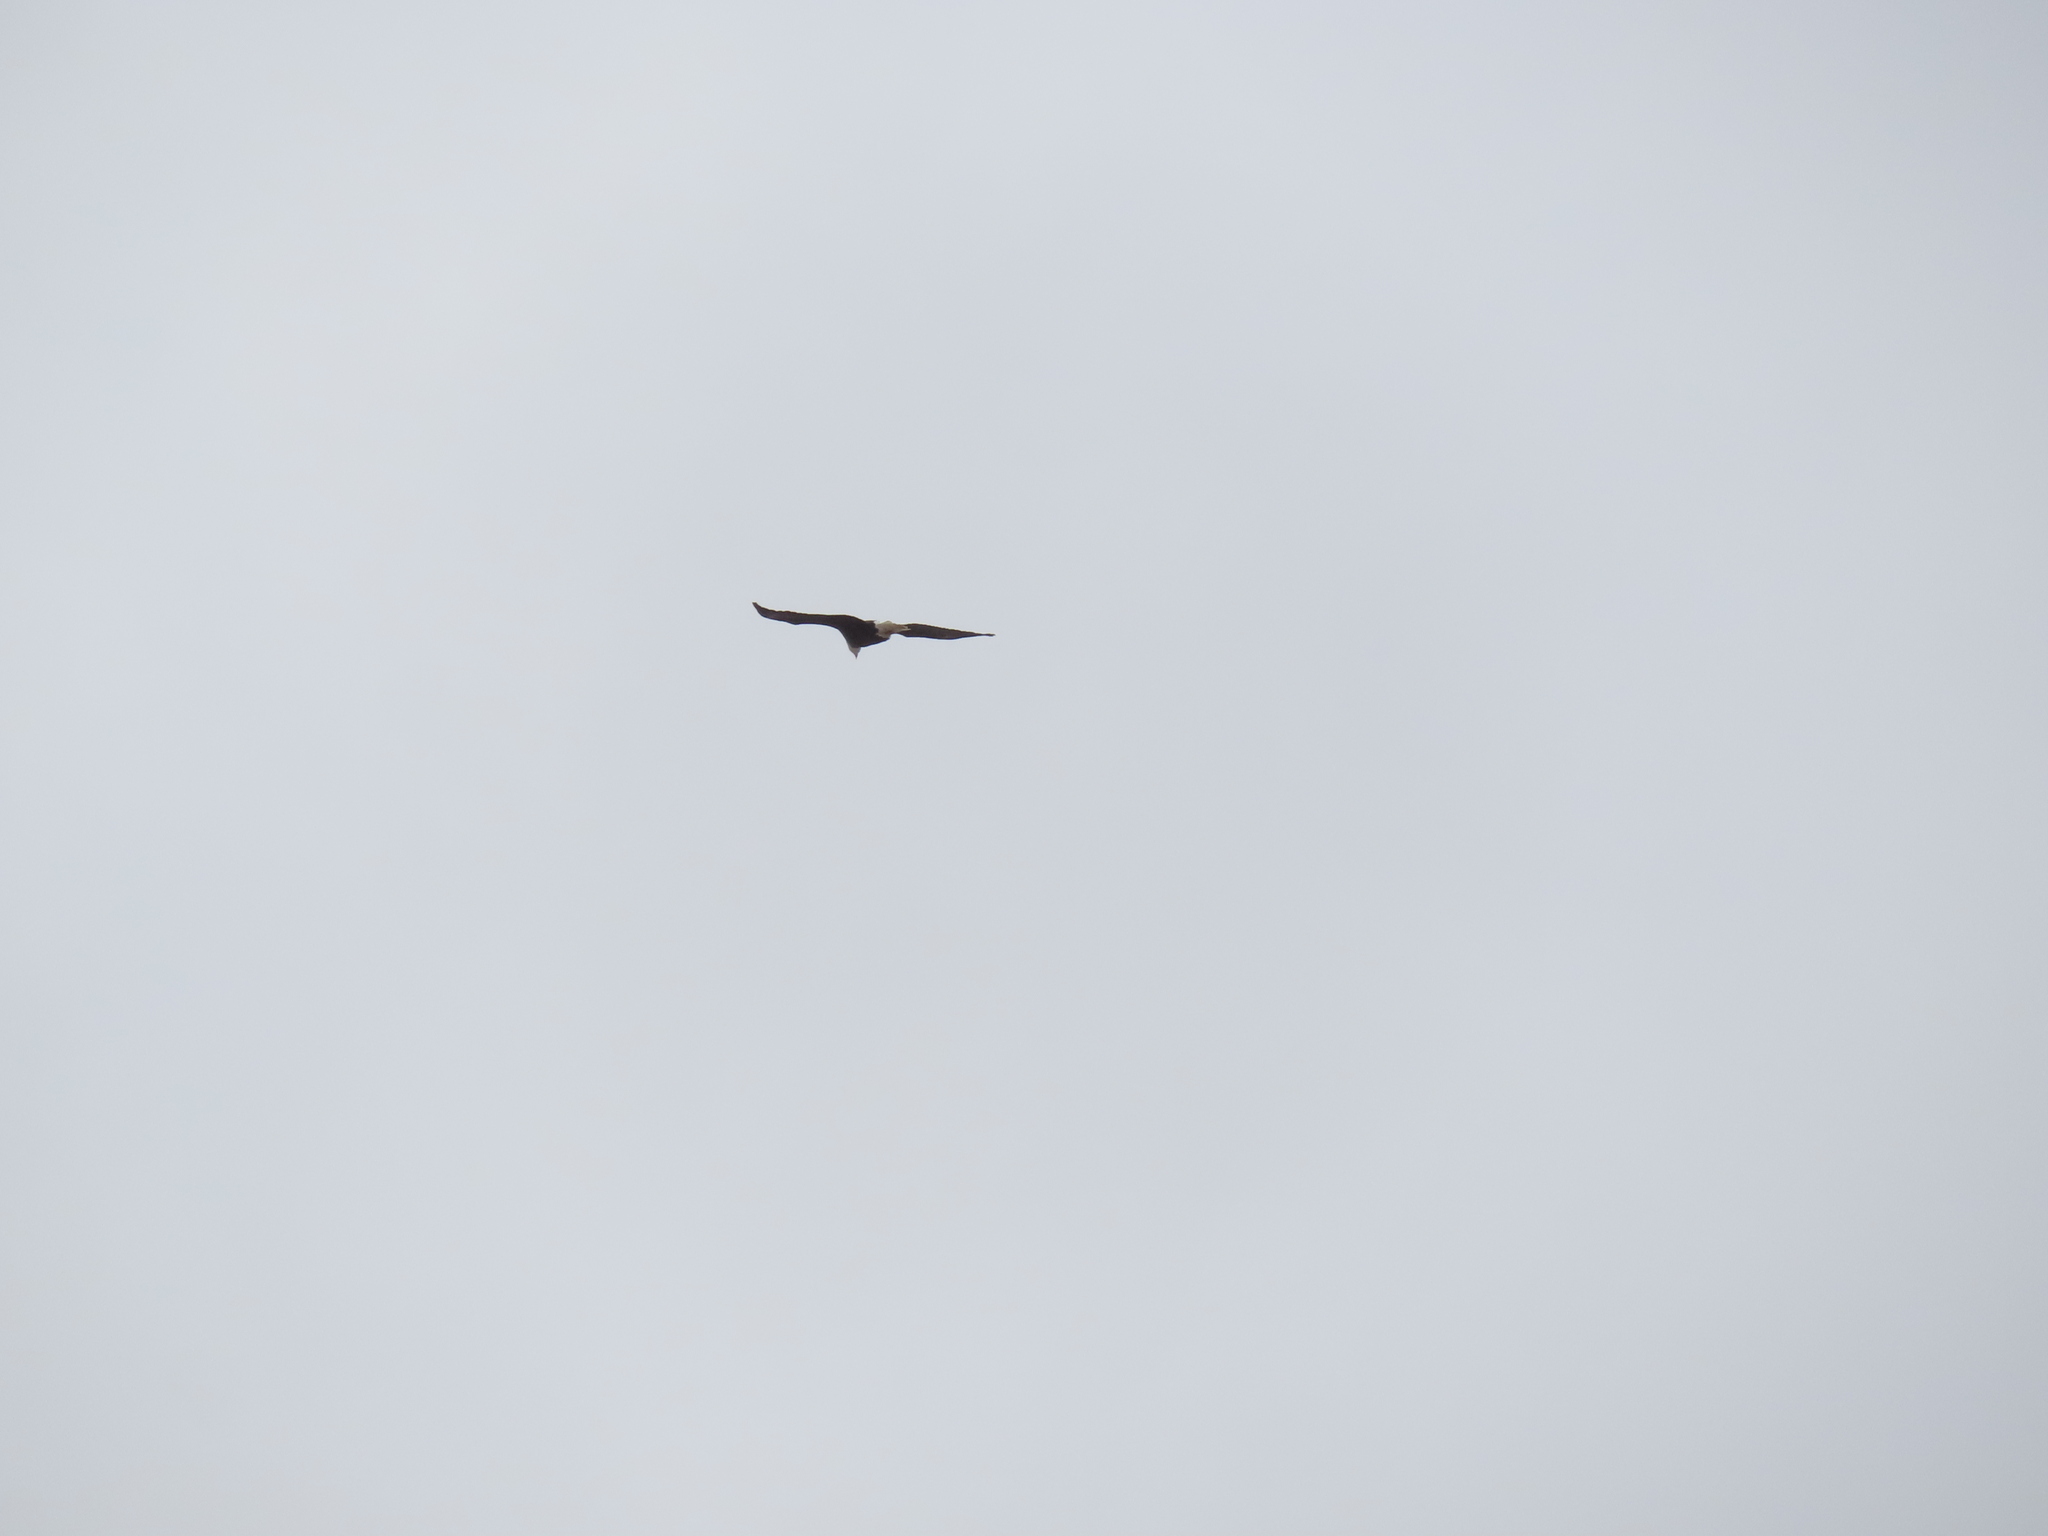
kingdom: Animalia
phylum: Chordata
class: Aves
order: Accipitriformes
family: Accipitridae
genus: Haliaeetus
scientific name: Haliaeetus leucocephalus
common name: Bald eagle
